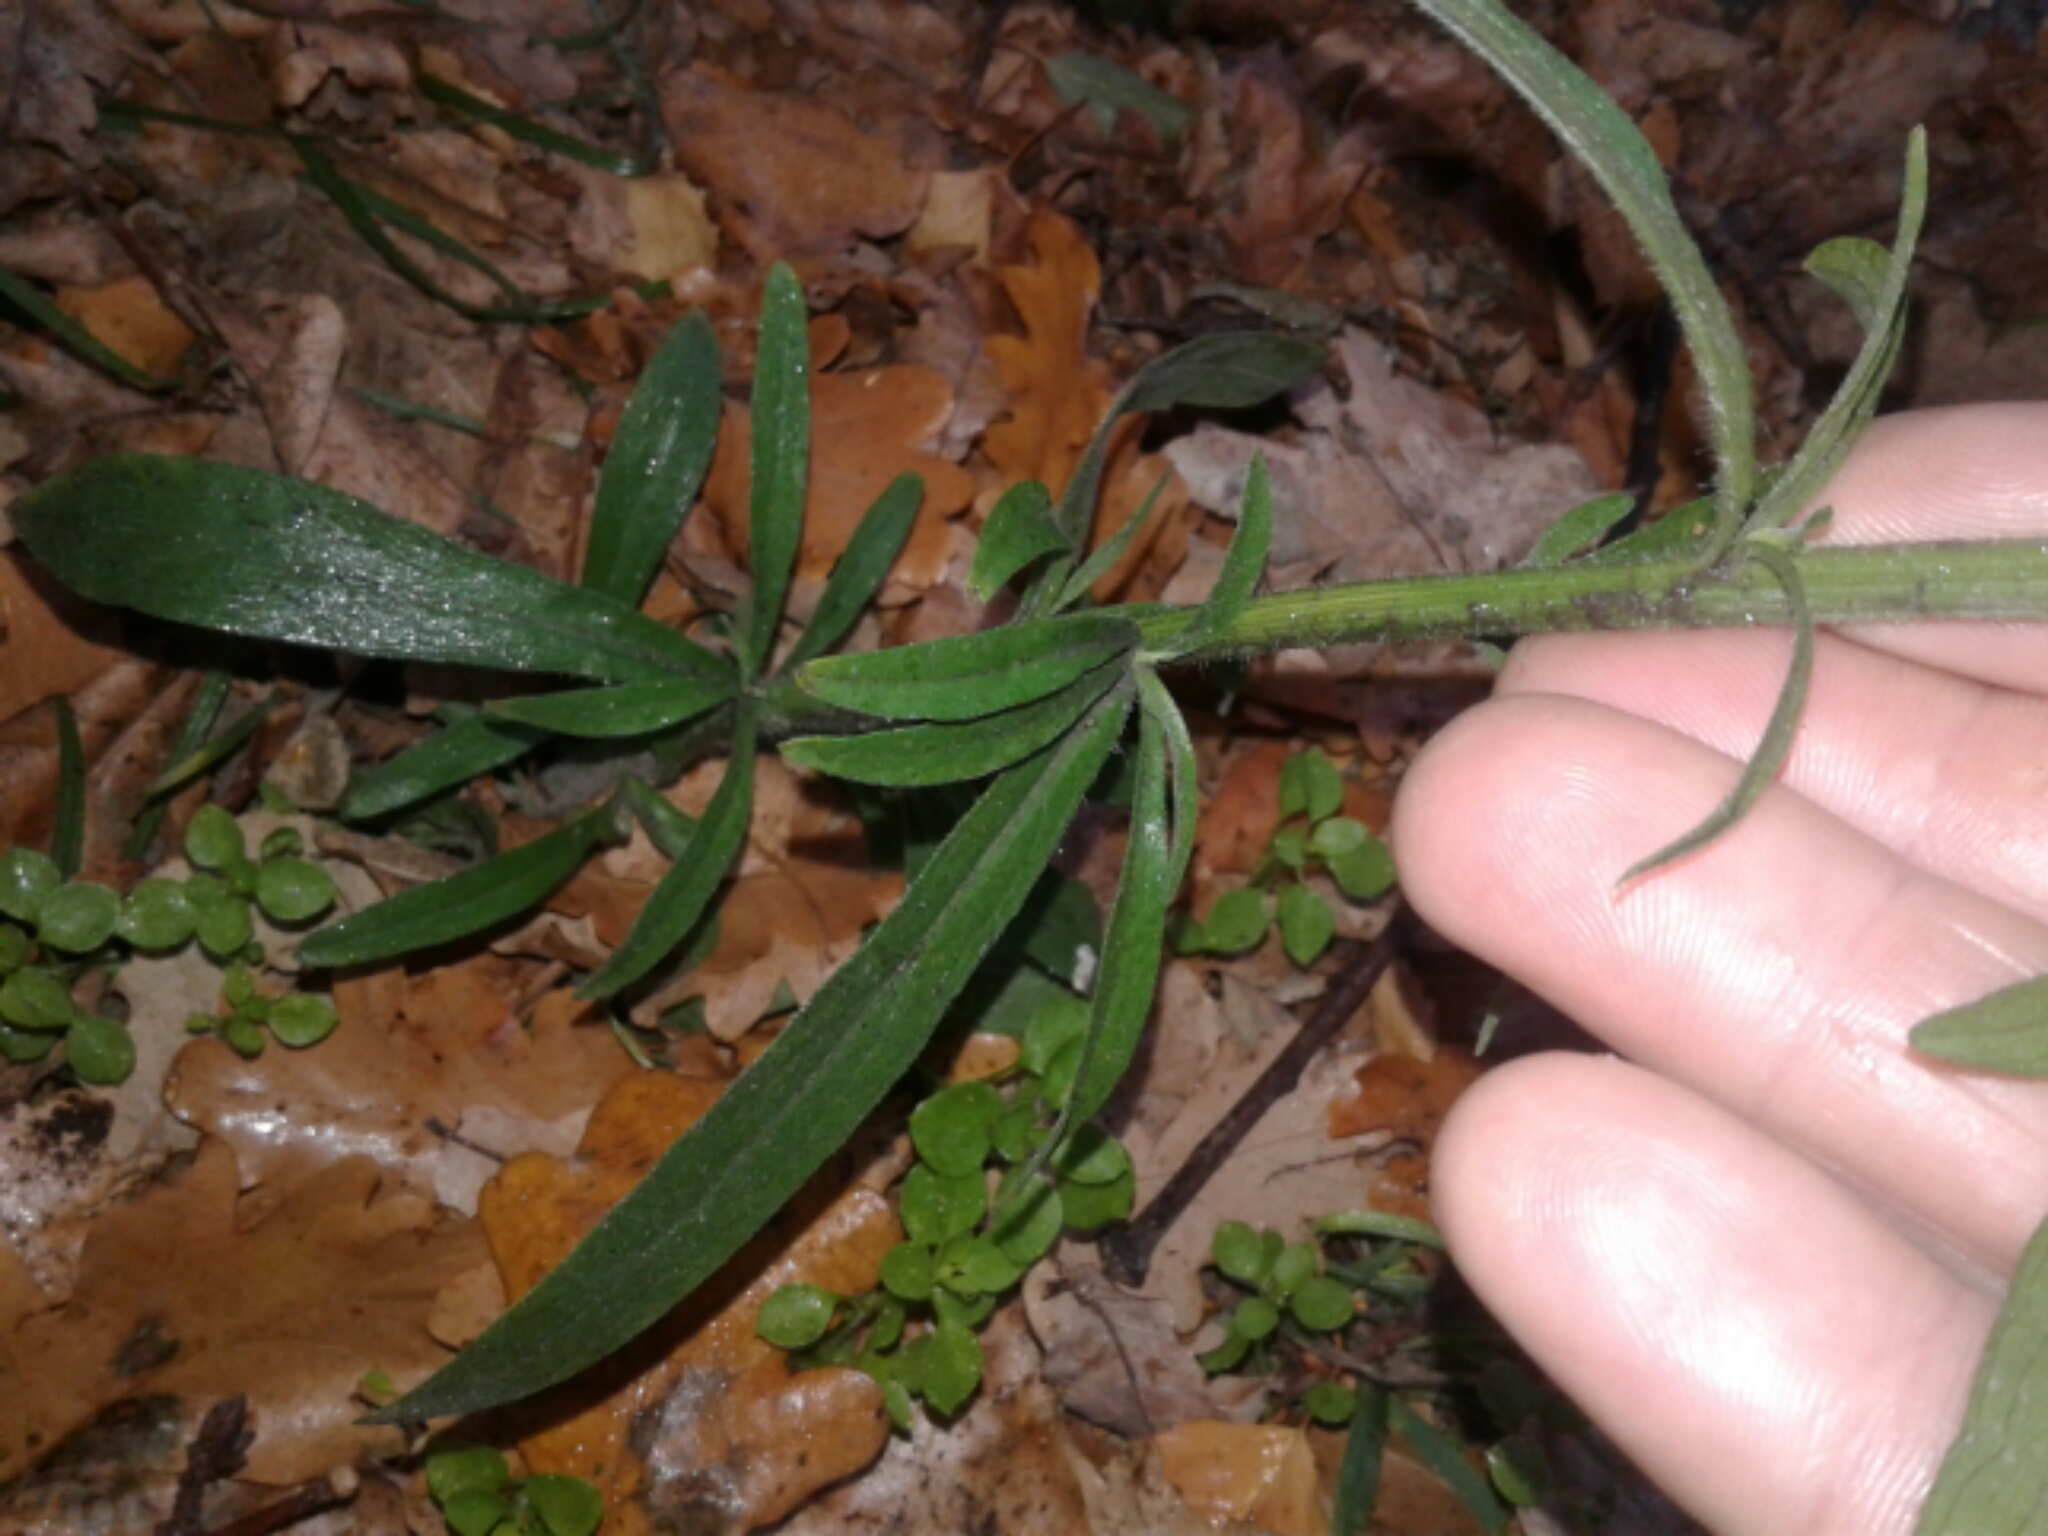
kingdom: Plantae
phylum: Tracheophyta
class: Magnoliopsida
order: Asterales
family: Asteraceae
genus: Erigeron
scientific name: Erigeron sumatrensis
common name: Daisy
